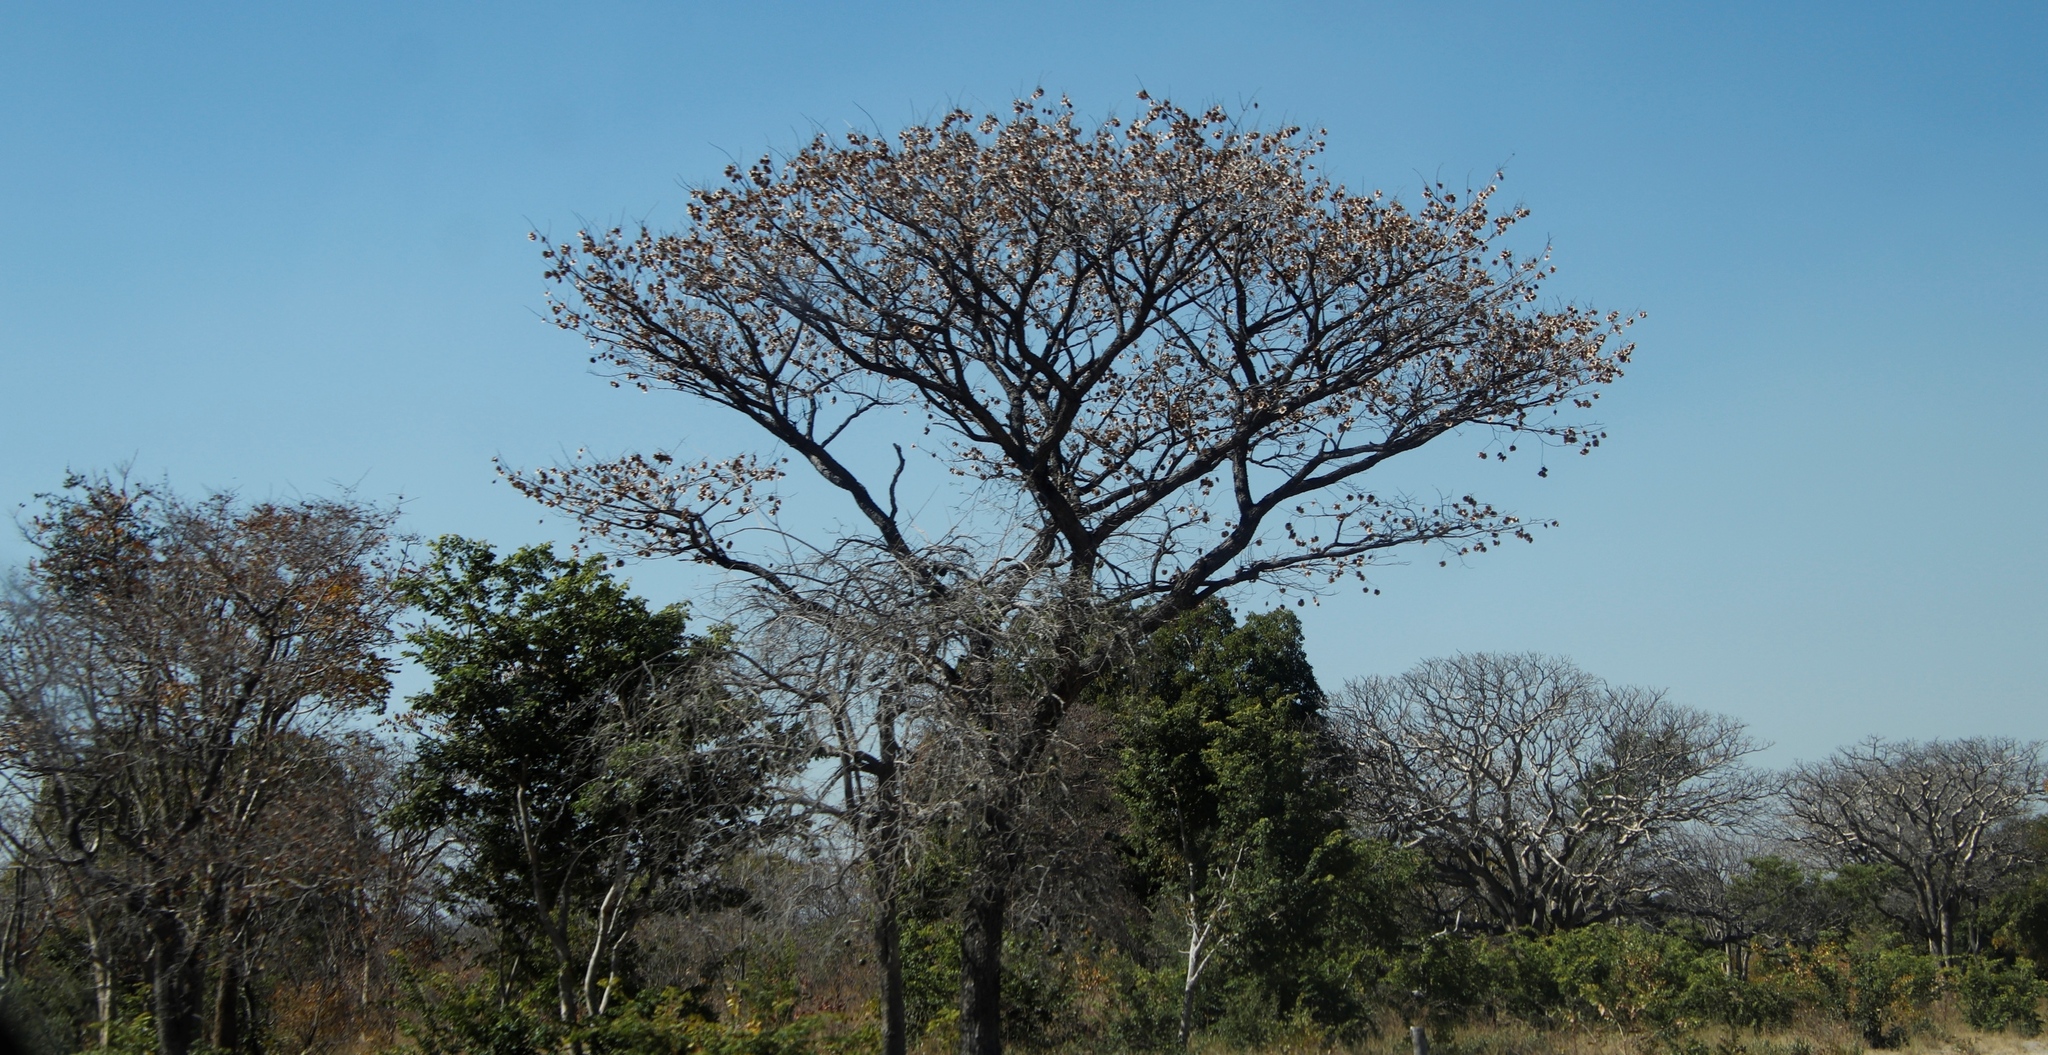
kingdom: Plantae
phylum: Tracheophyta
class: Magnoliopsida
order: Fabales
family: Fabaceae
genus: Pterocarpus
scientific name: Pterocarpus angolensis
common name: Bloodwood tree
